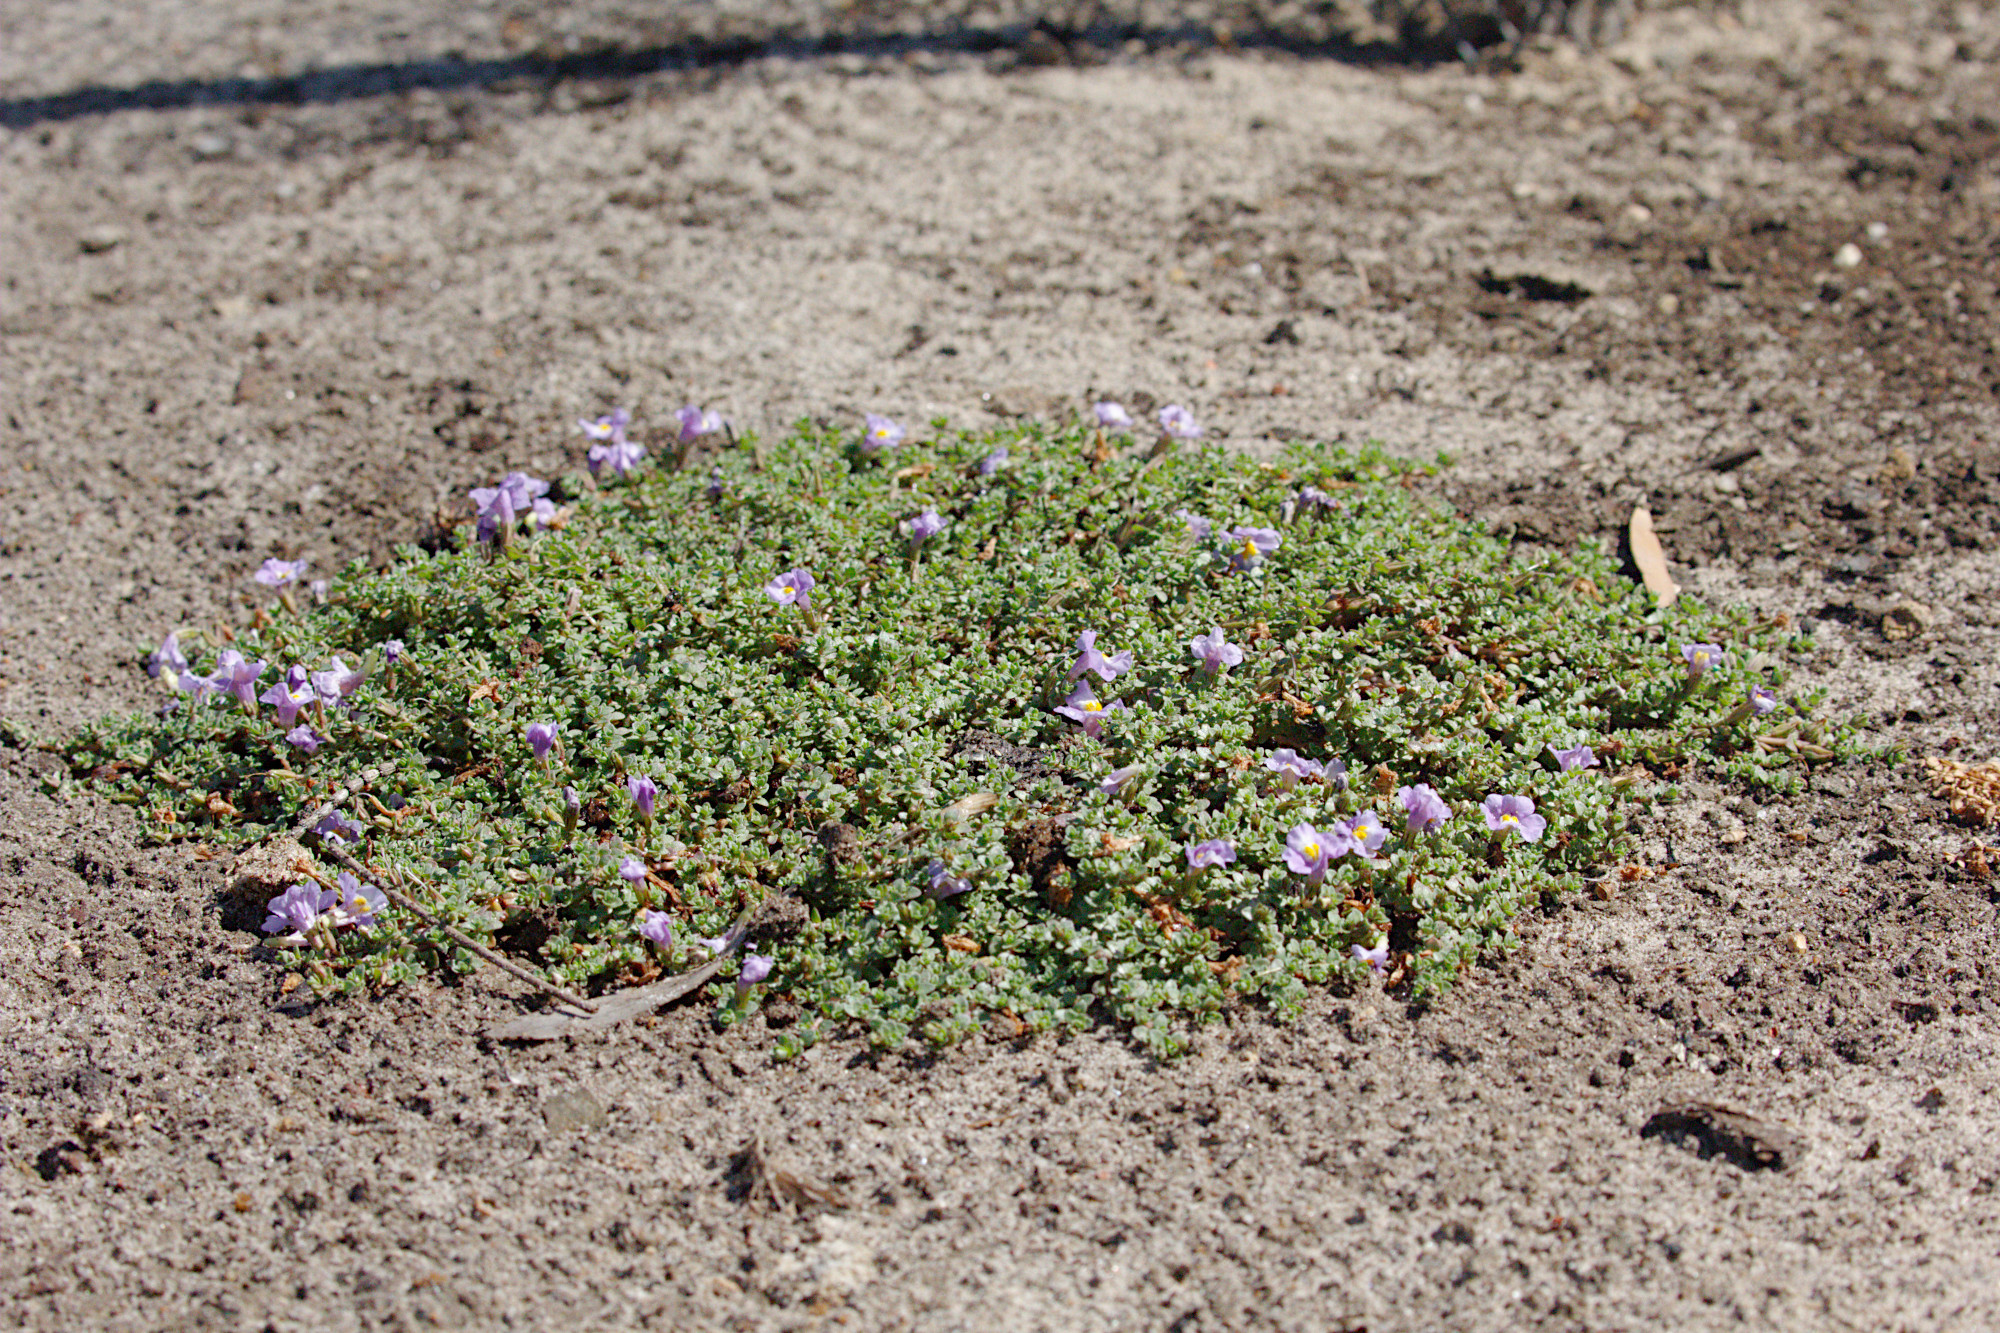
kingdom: Plantae
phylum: Tracheophyta
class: Magnoliopsida
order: Lamiales
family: Phrymaceae
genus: Thyridia
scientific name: Thyridia repens
